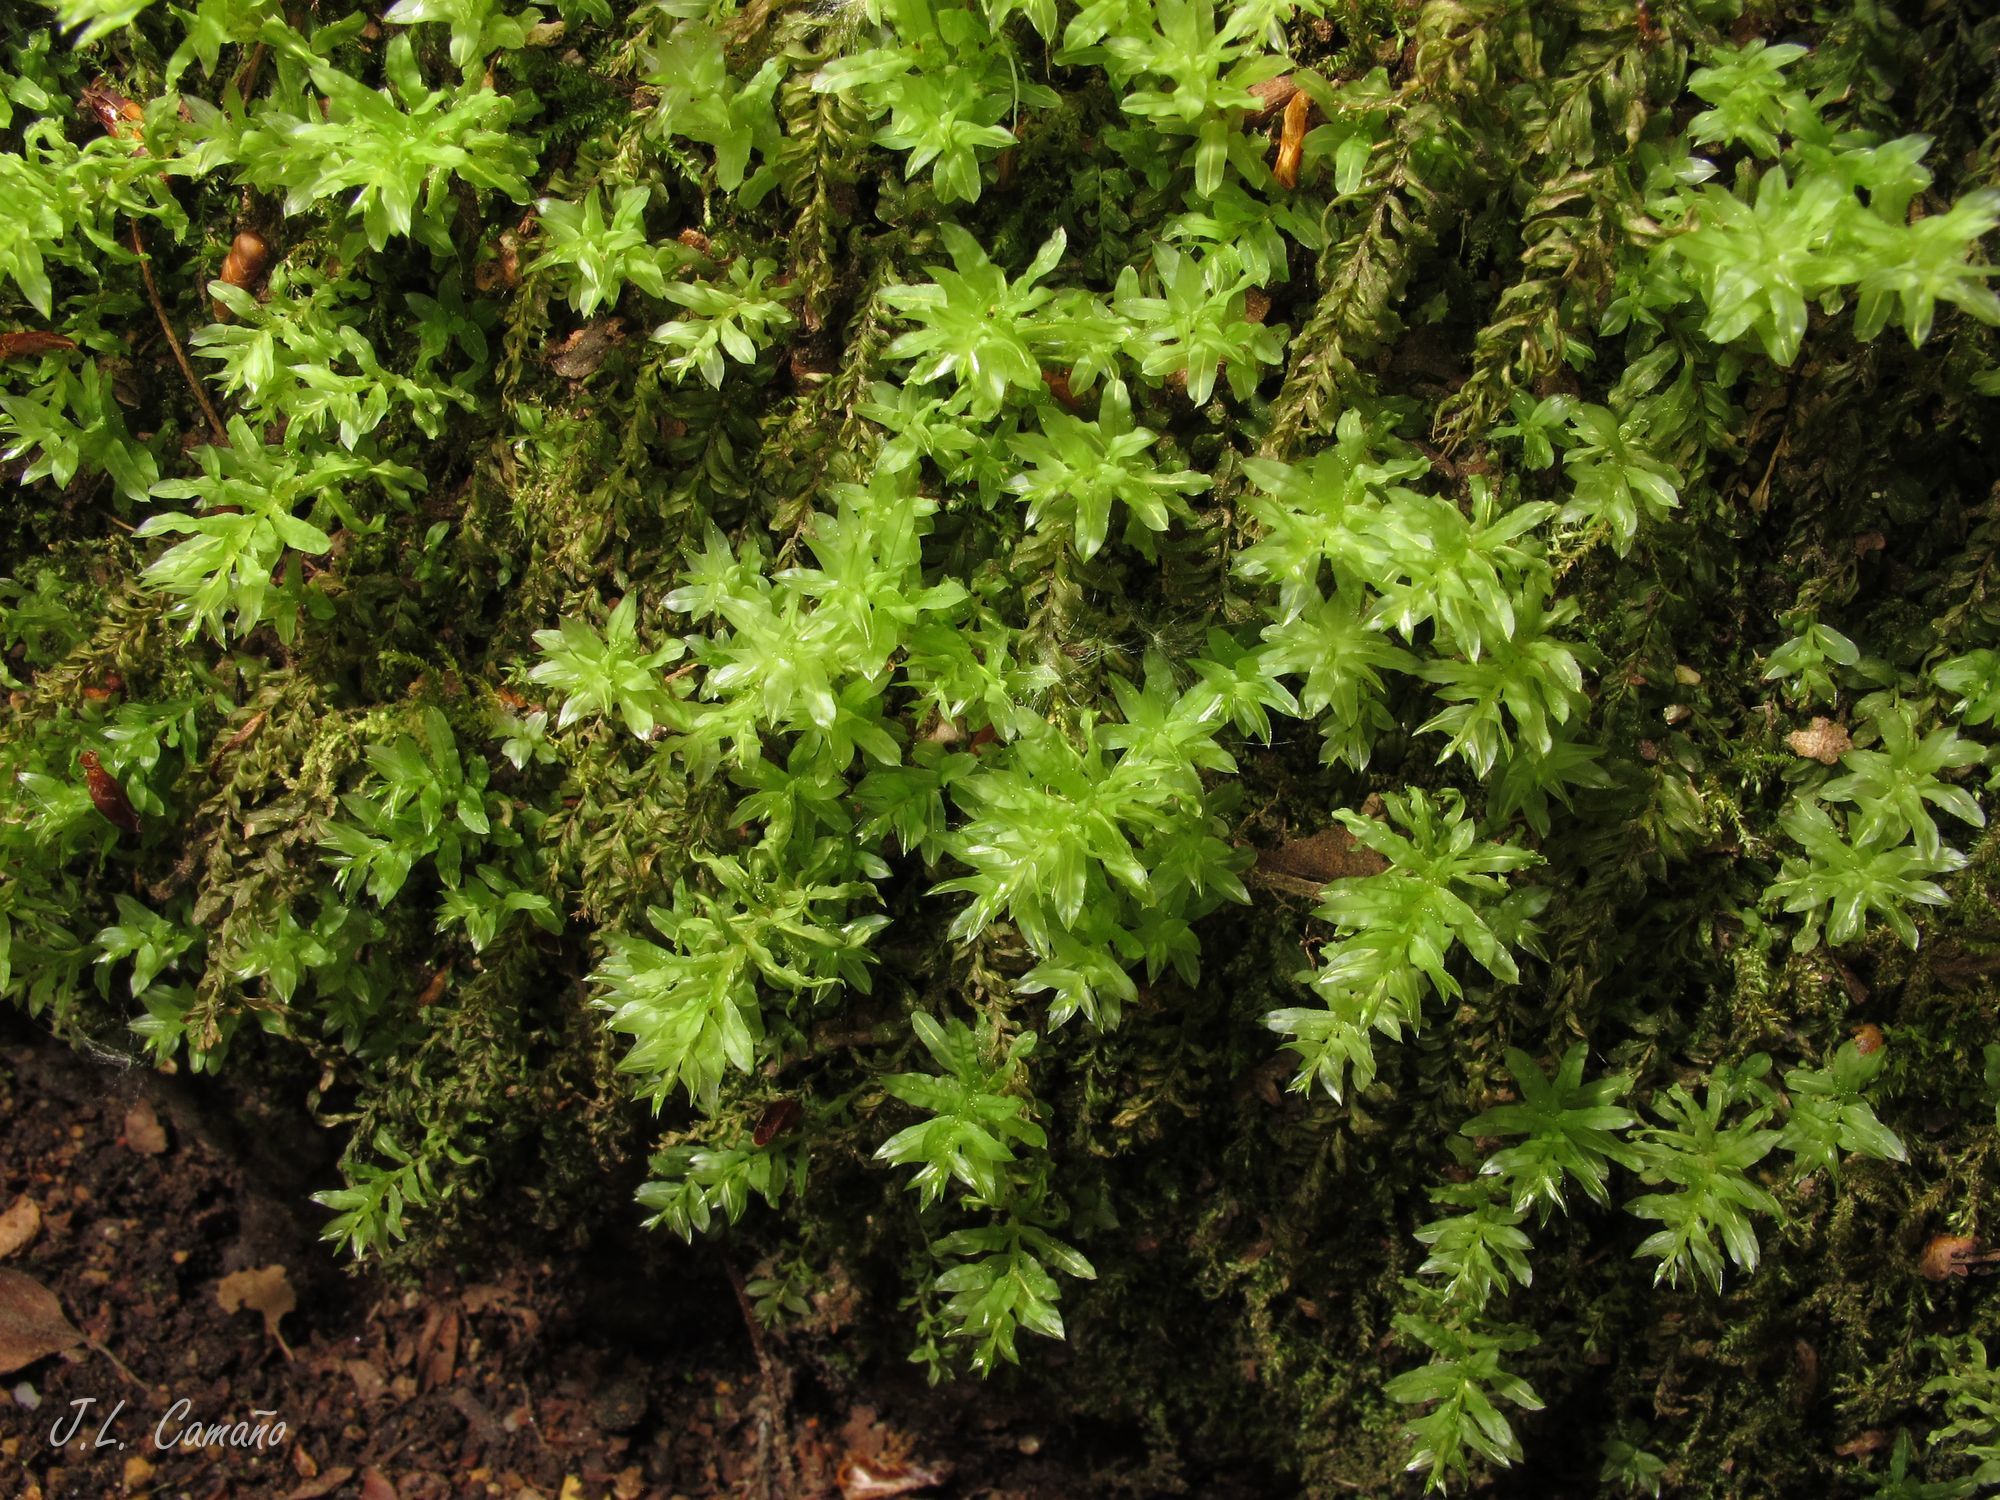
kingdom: Plantae
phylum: Bryophyta
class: Bryopsida
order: Bryales
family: Mniaceae
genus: Plagiomnium
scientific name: Plagiomnium undulatum
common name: Hart's-tongue thyme-moss
